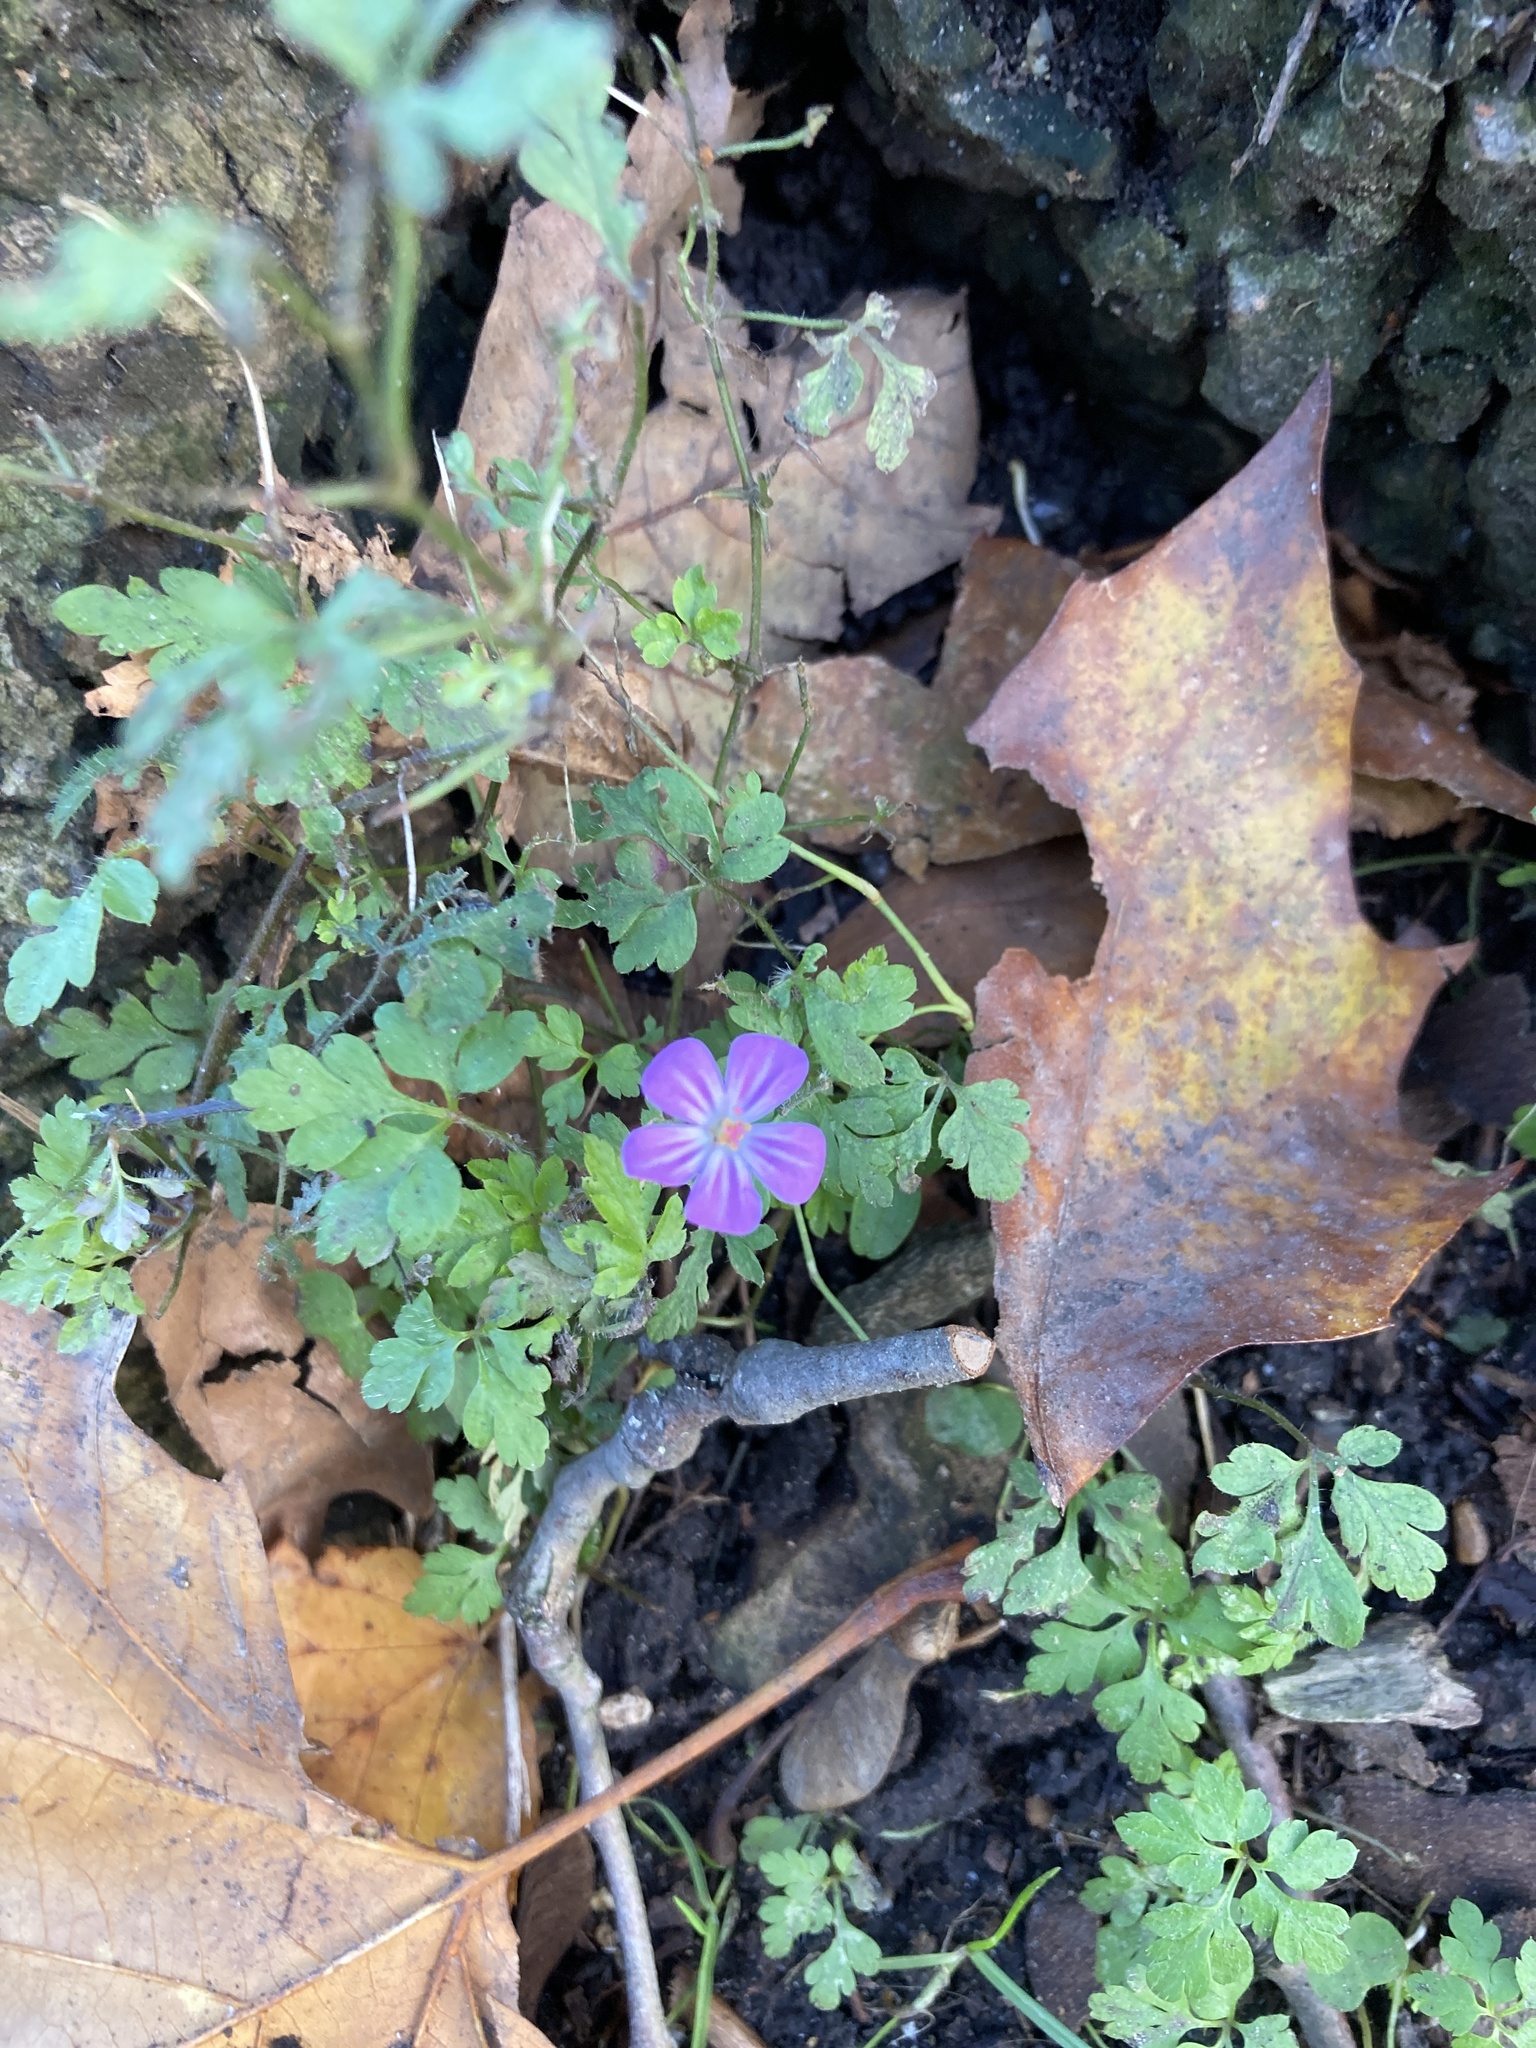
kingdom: Plantae
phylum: Tracheophyta
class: Magnoliopsida
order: Geraniales
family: Geraniaceae
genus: Geranium
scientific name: Geranium robertianum
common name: Herb-robert
